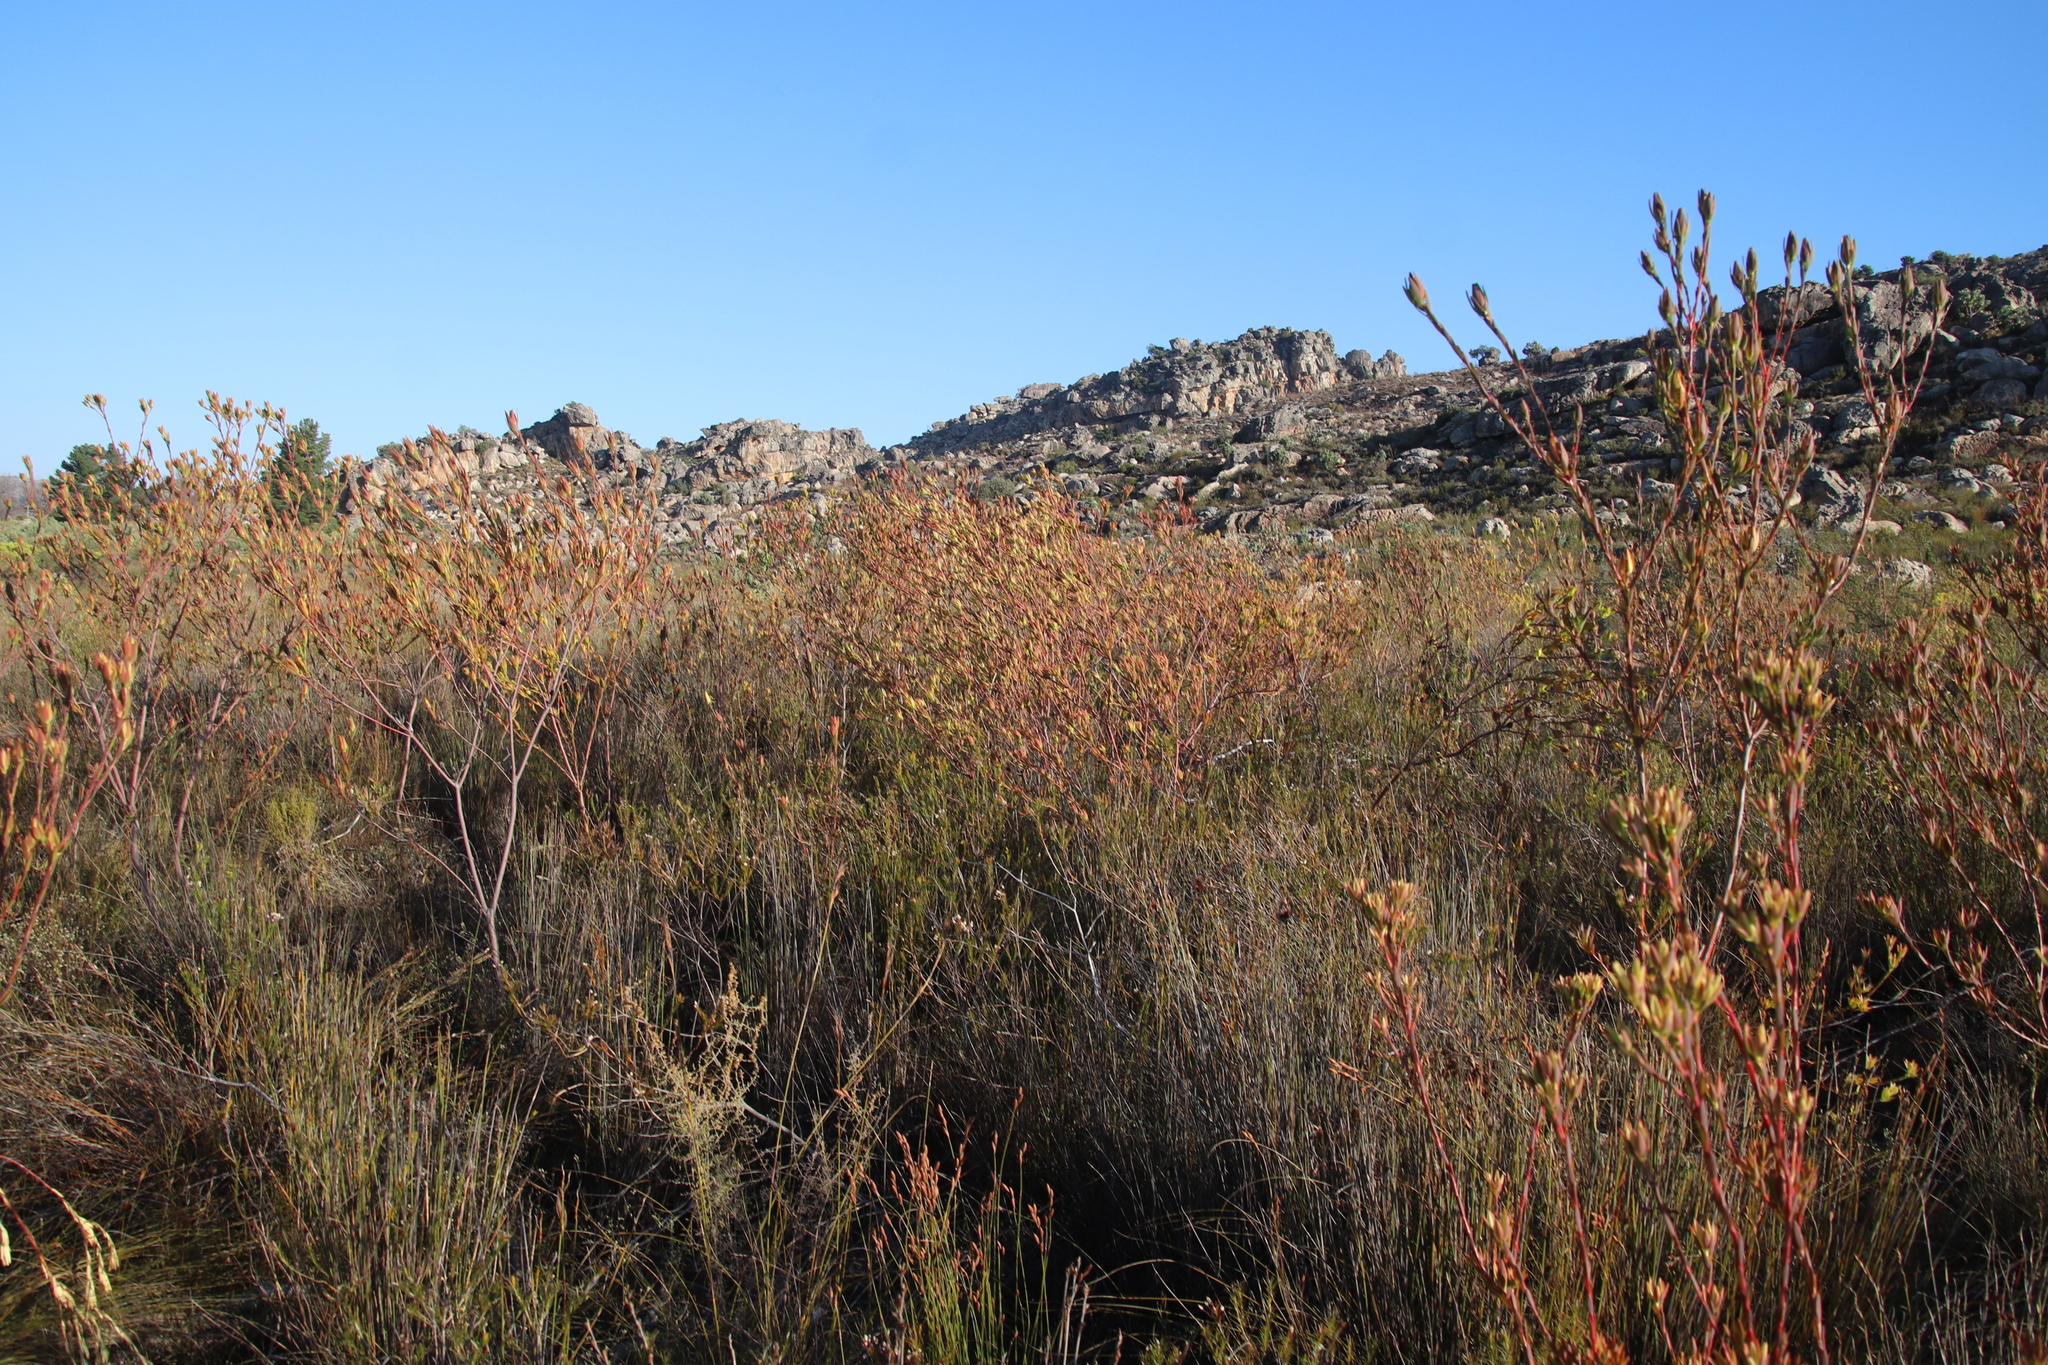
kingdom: Plantae
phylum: Tracheophyta
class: Magnoliopsida
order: Proteales
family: Proteaceae
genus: Leucadendron
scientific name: Leucadendron diemontianum
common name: Visgat conebush
